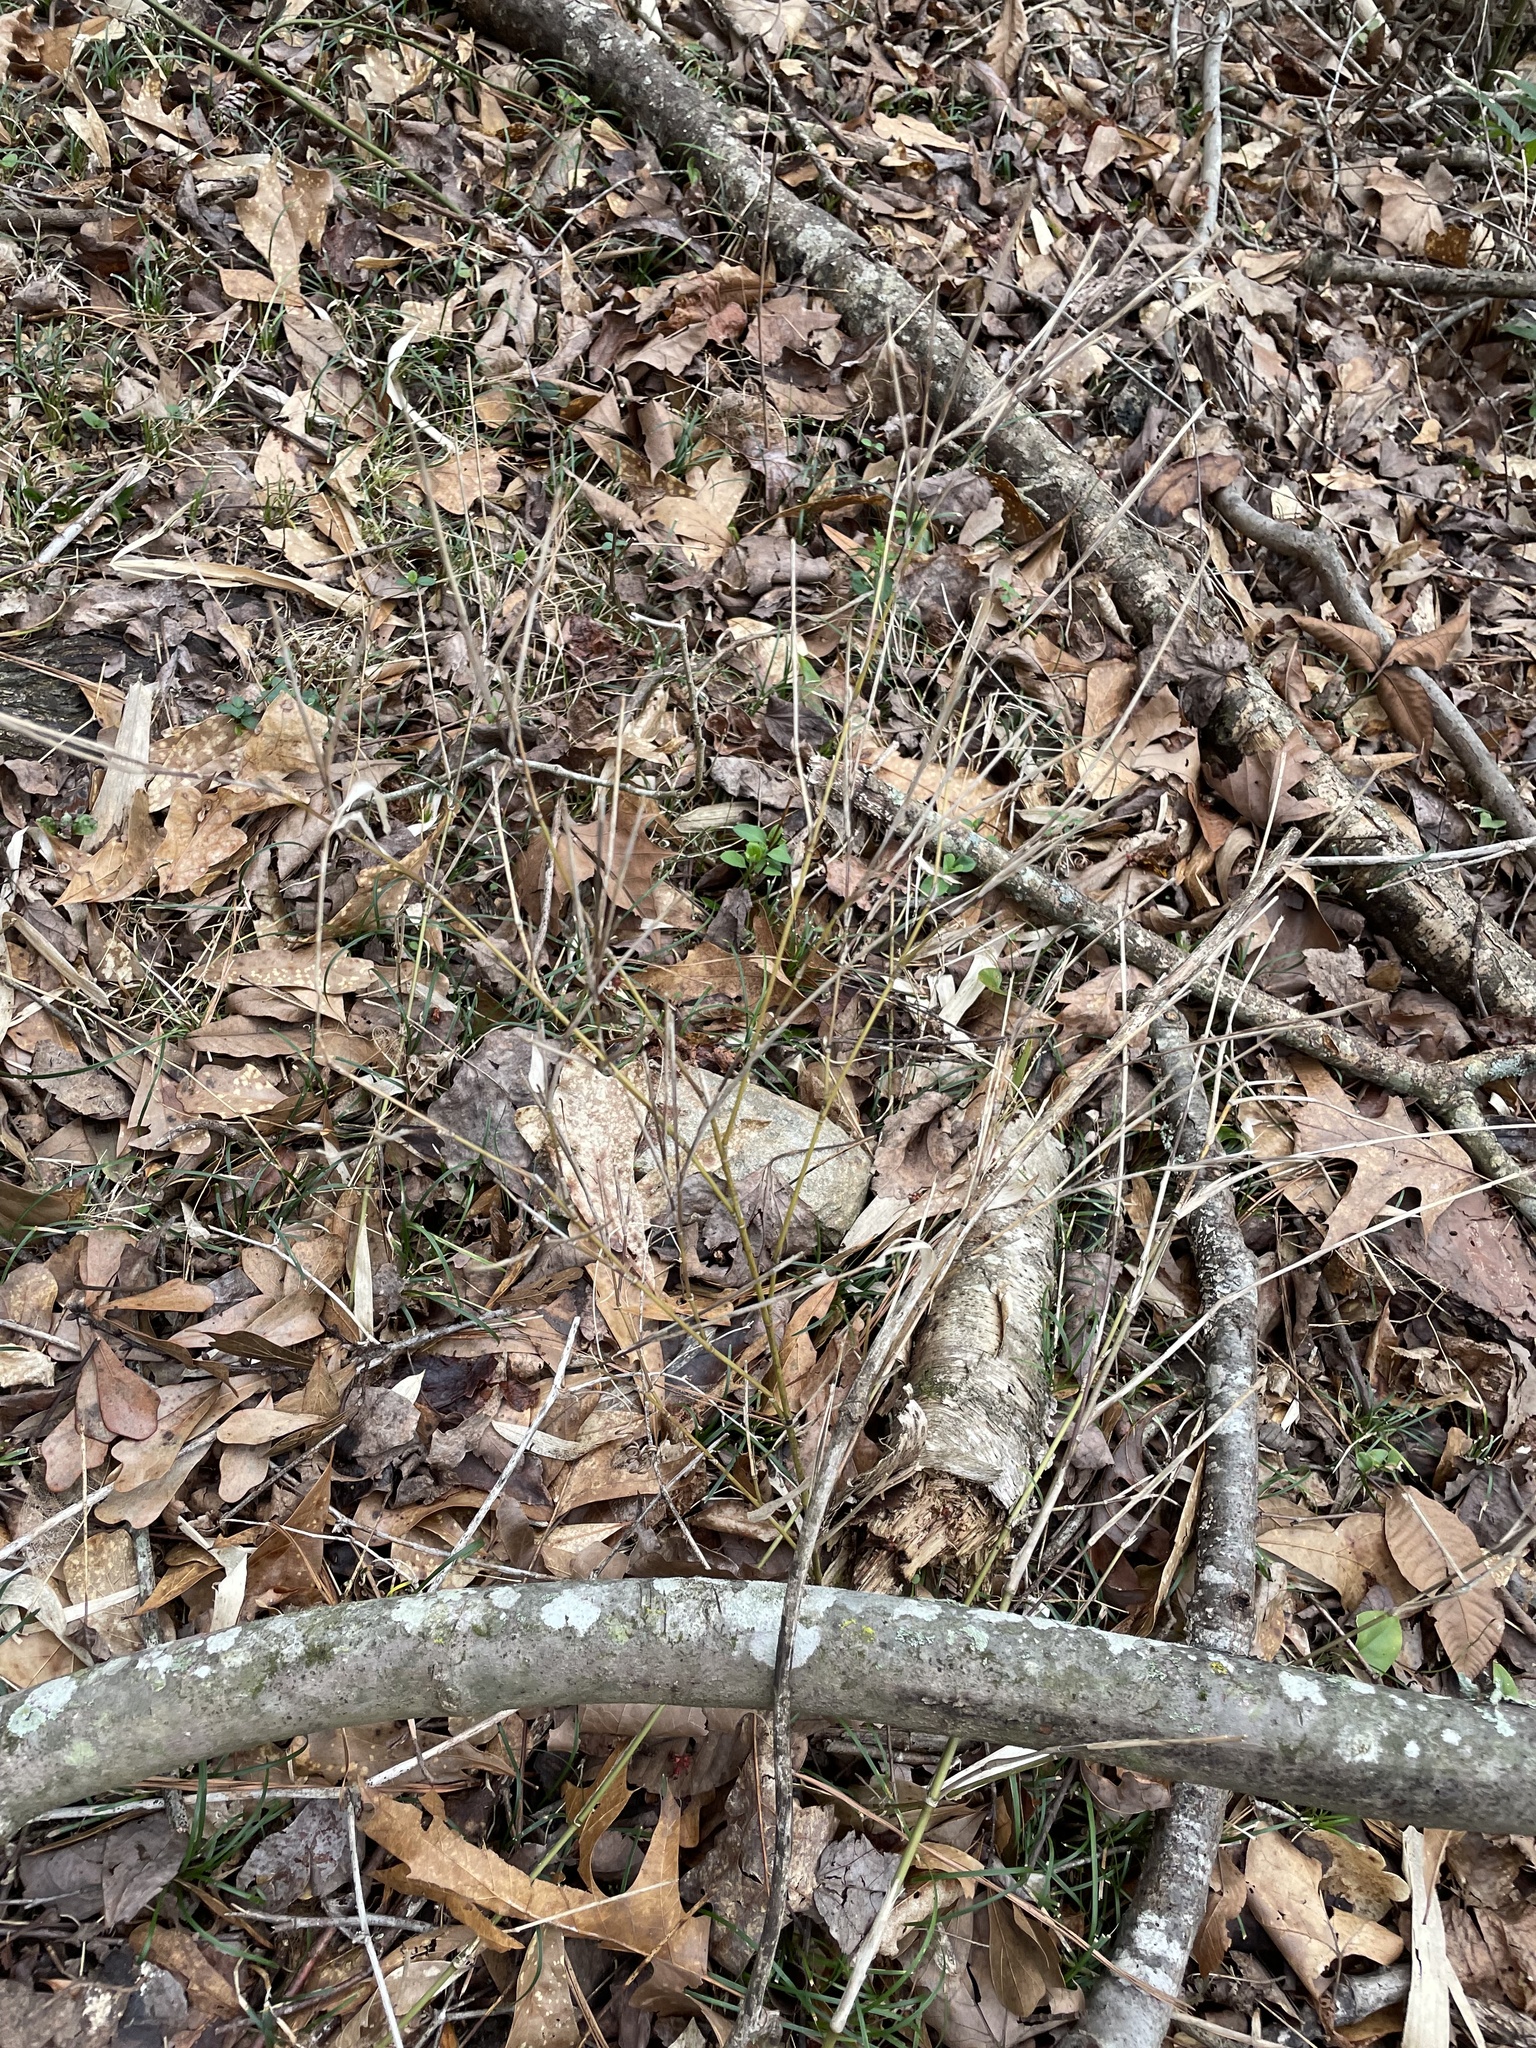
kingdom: Plantae
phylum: Tracheophyta
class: Liliopsida
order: Poales
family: Poaceae
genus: Arundinaria
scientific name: Arundinaria appalachiana
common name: Hill cane
